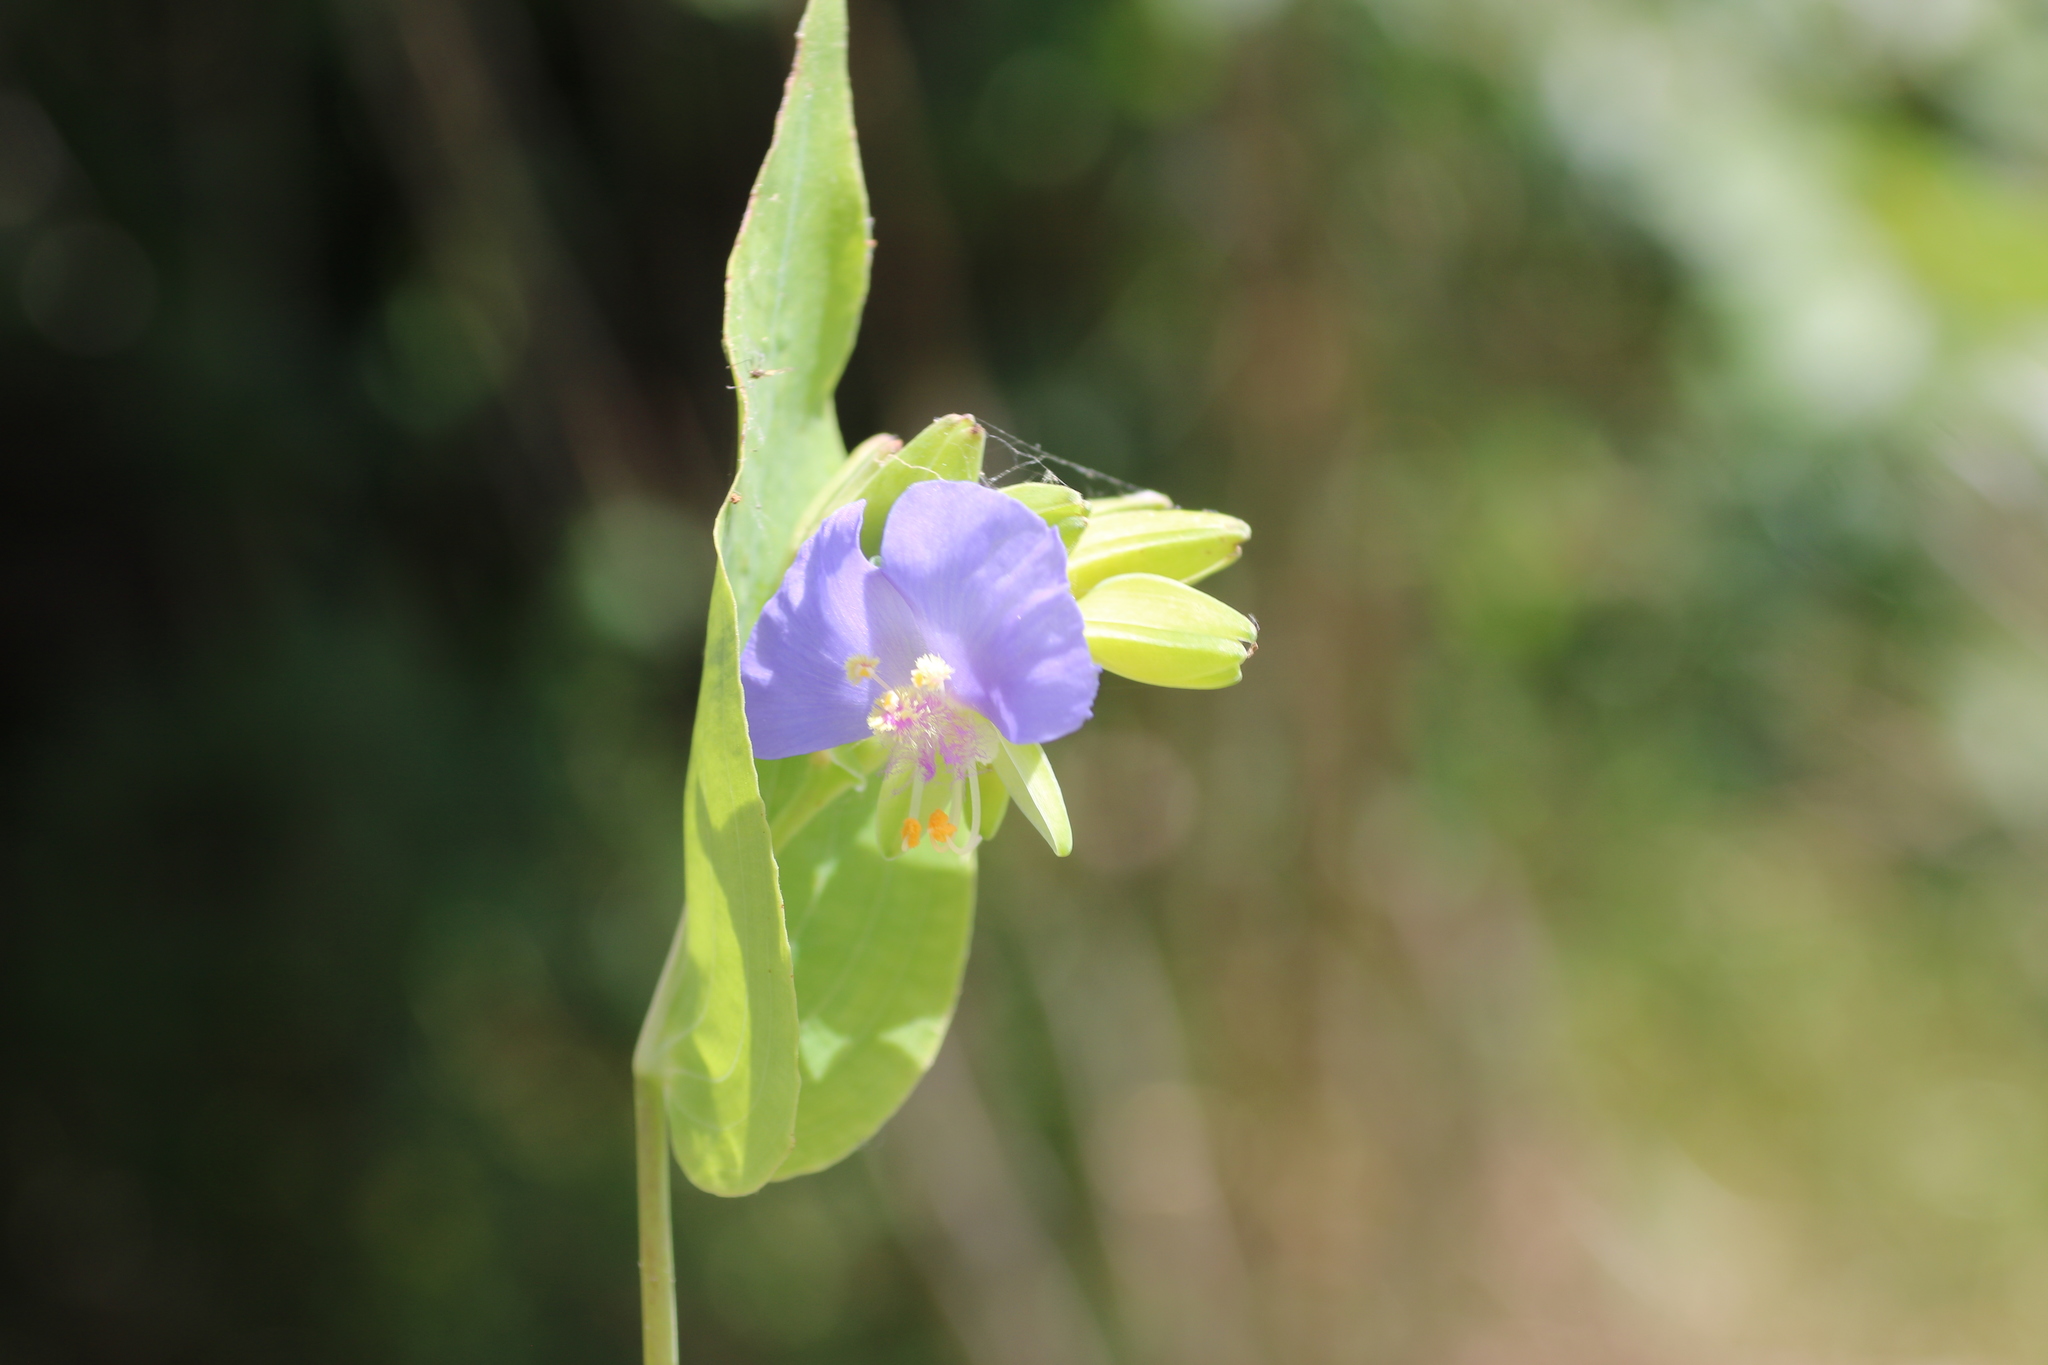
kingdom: Plantae
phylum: Tracheophyta
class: Liliopsida
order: Commelinales
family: Commelinaceae
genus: Tinantia
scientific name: Tinantia anomala
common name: False dayflower
